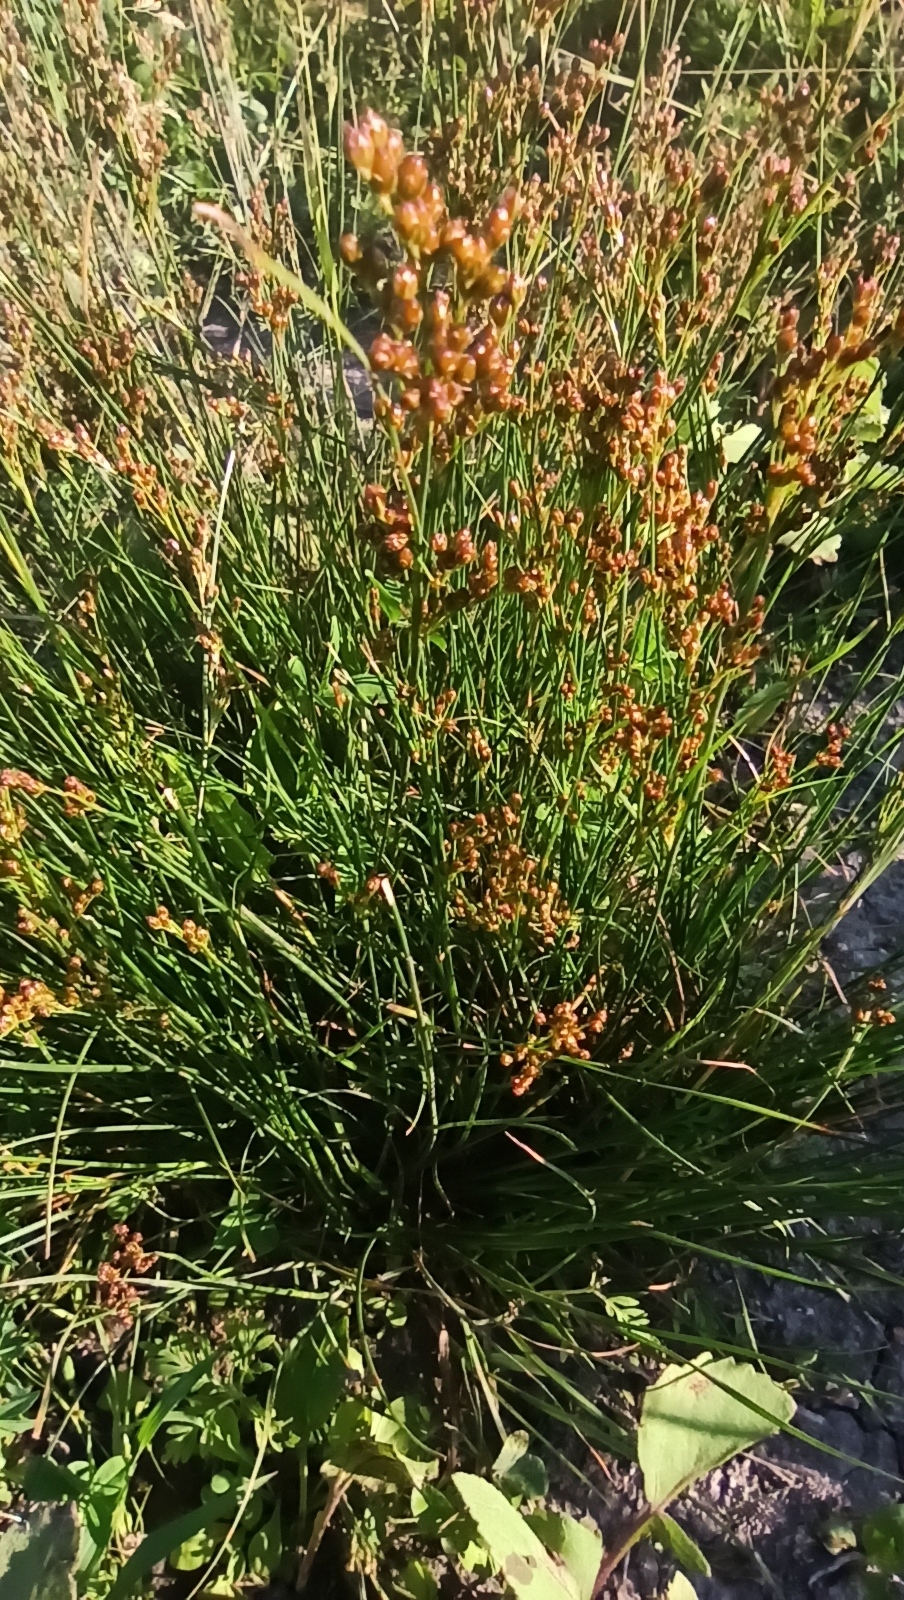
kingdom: Plantae
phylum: Tracheophyta
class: Liliopsida
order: Poales
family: Juncaceae
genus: Juncus
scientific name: Juncus compressus
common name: Round-fruited rush
